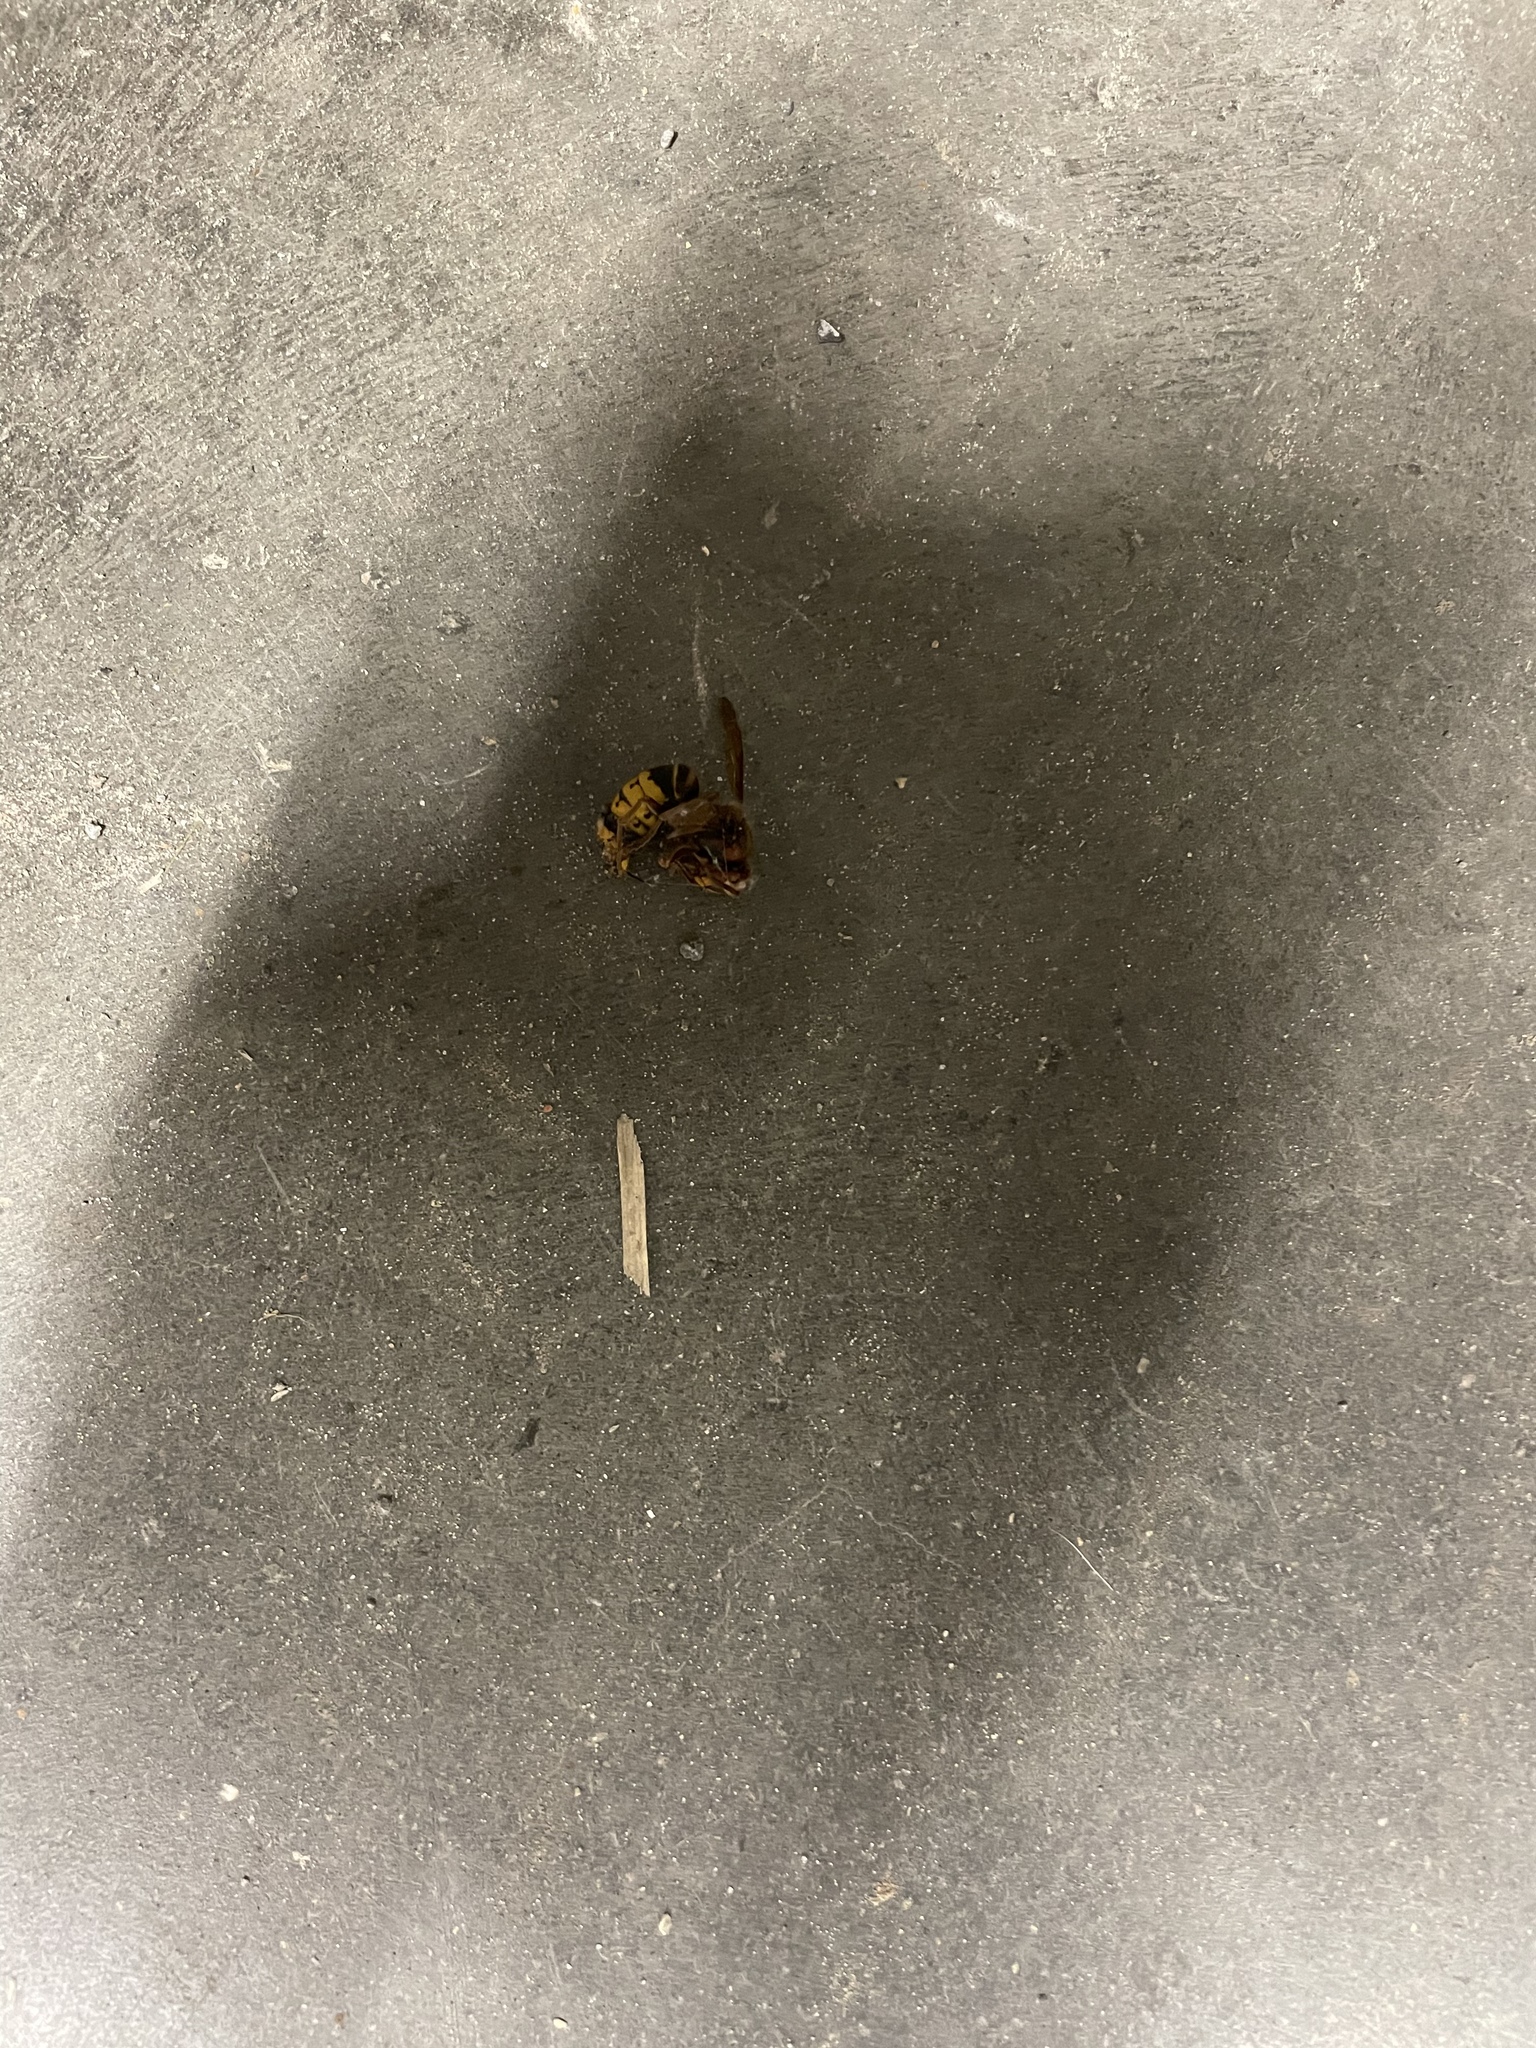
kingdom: Animalia
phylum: Arthropoda
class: Insecta
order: Hymenoptera
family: Vespidae
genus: Vespa
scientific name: Vespa crabro
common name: Hornet
